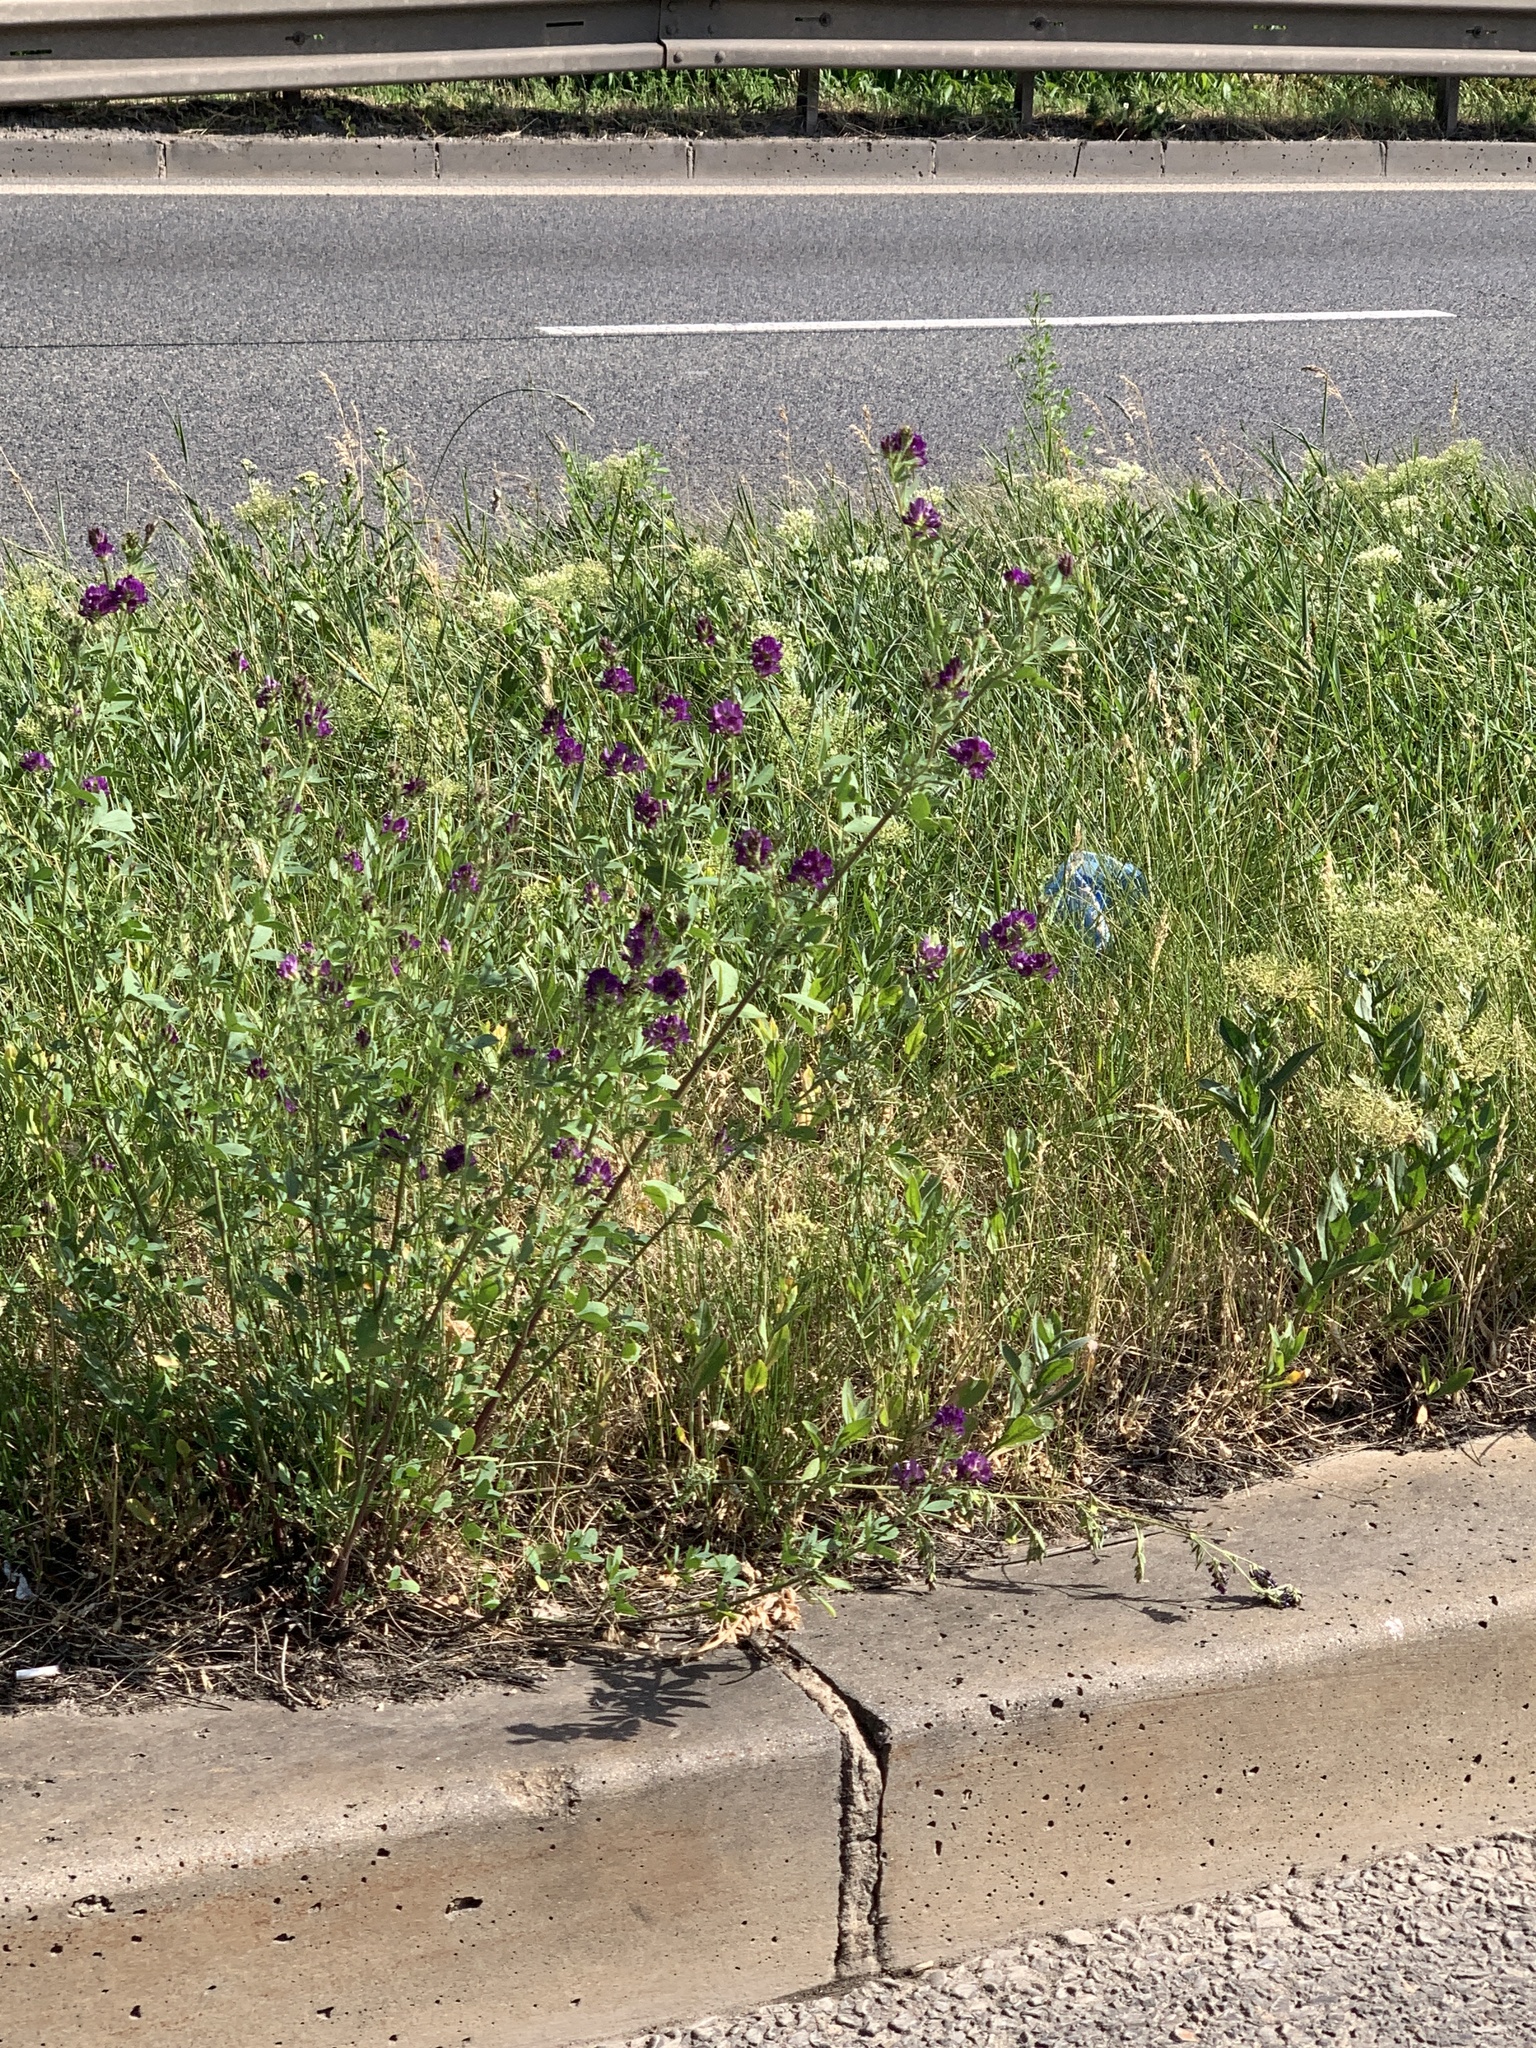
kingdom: Plantae
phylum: Tracheophyta
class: Magnoliopsida
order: Fabales
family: Fabaceae
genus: Medicago
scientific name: Medicago sativa
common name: Alfalfa
